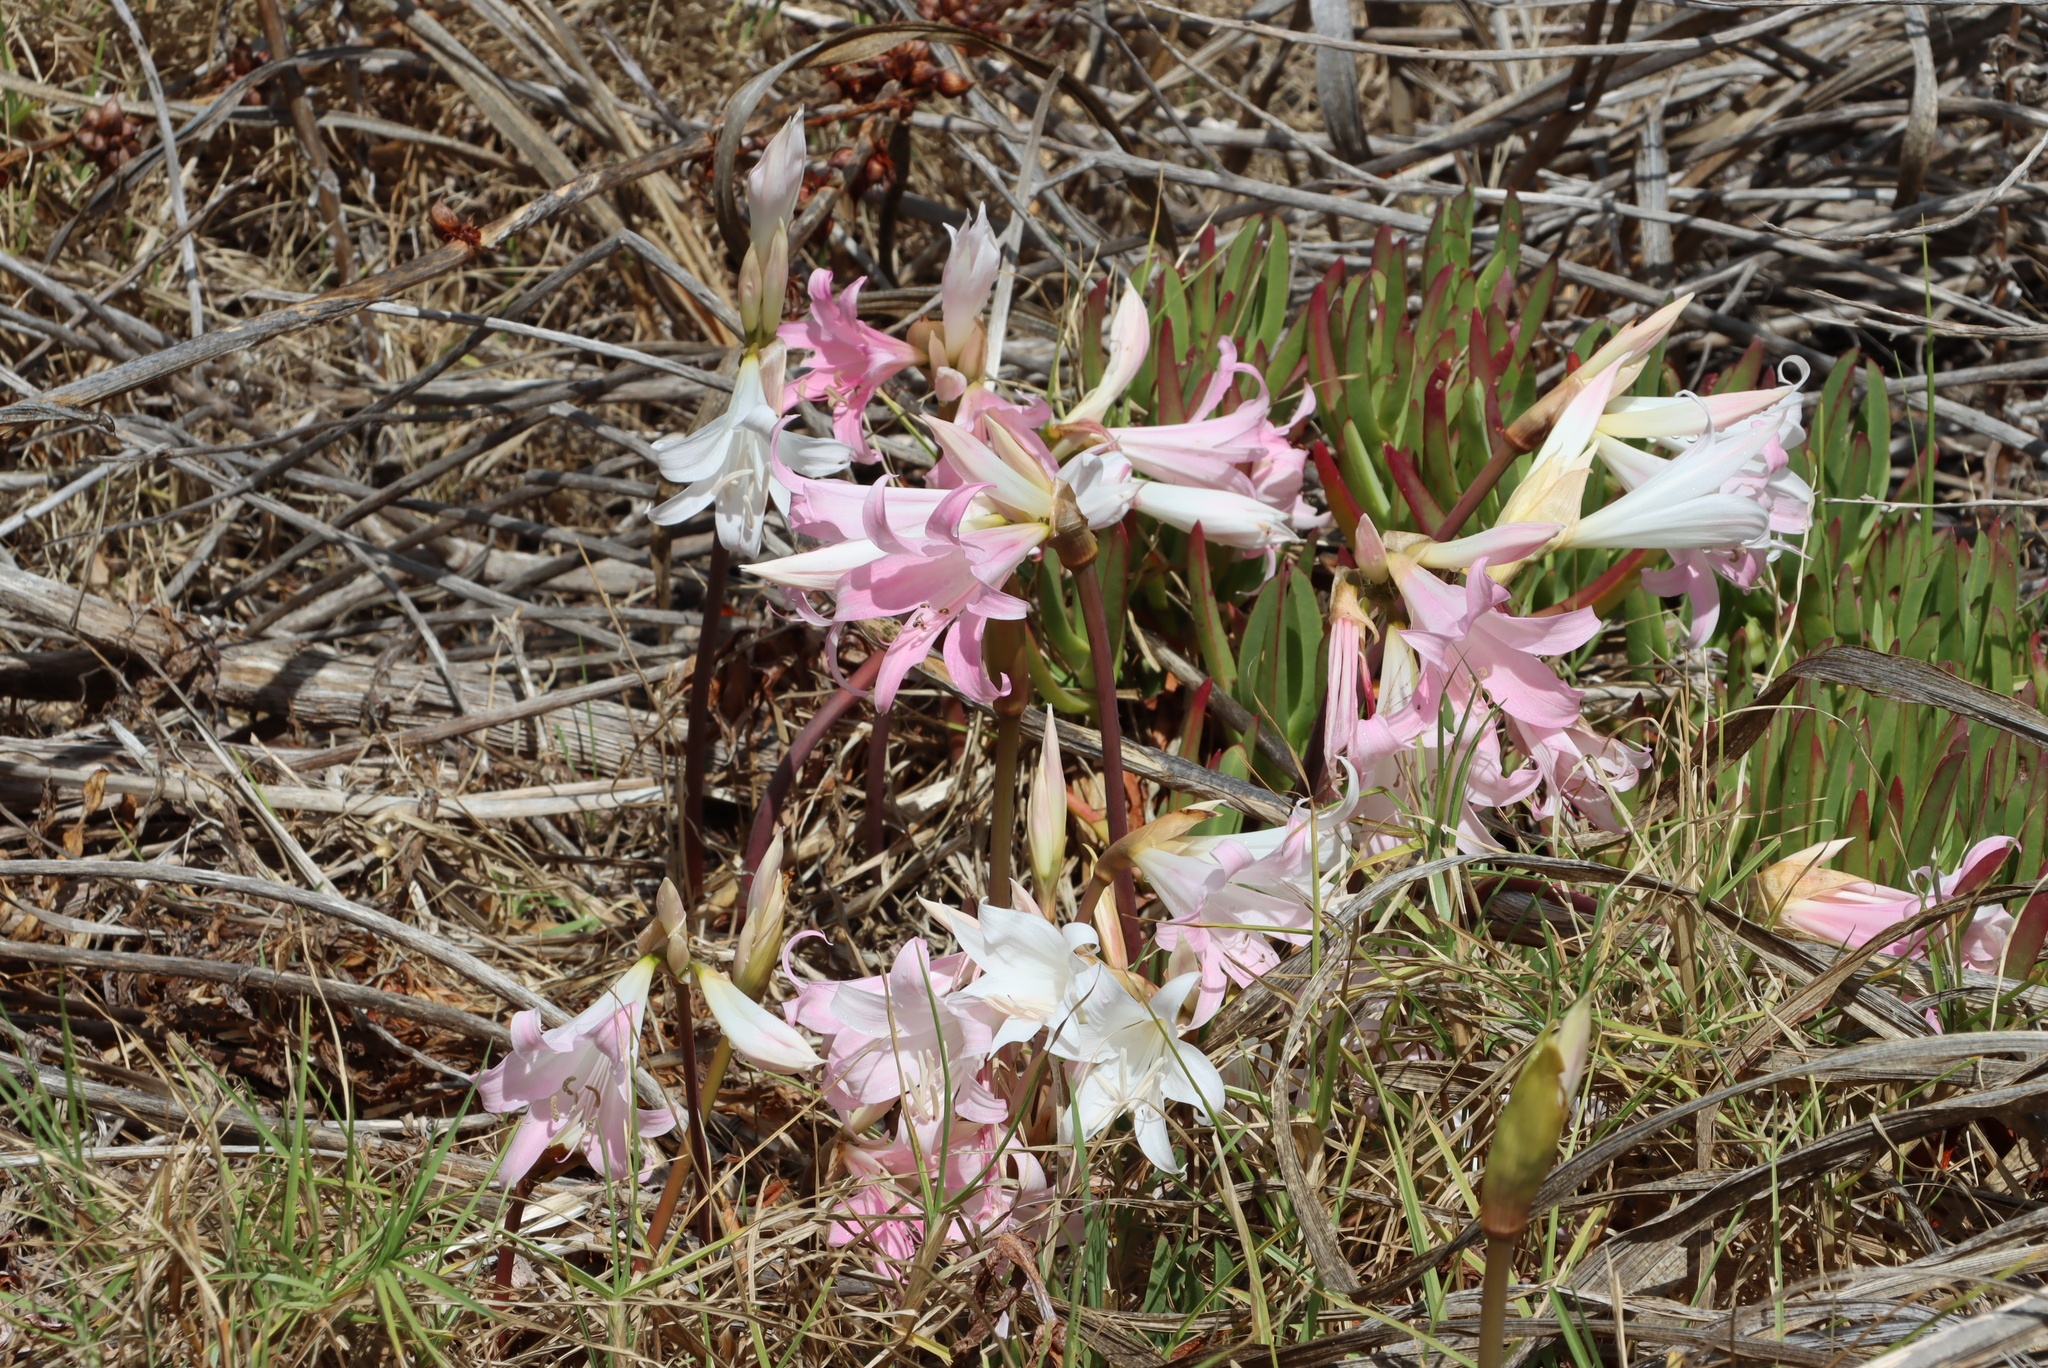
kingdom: Plantae
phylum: Tracheophyta
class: Liliopsida
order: Asparagales
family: Amaryllidaceae
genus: Amaryllis
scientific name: Amaryllis belladonna
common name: Jersey lily
